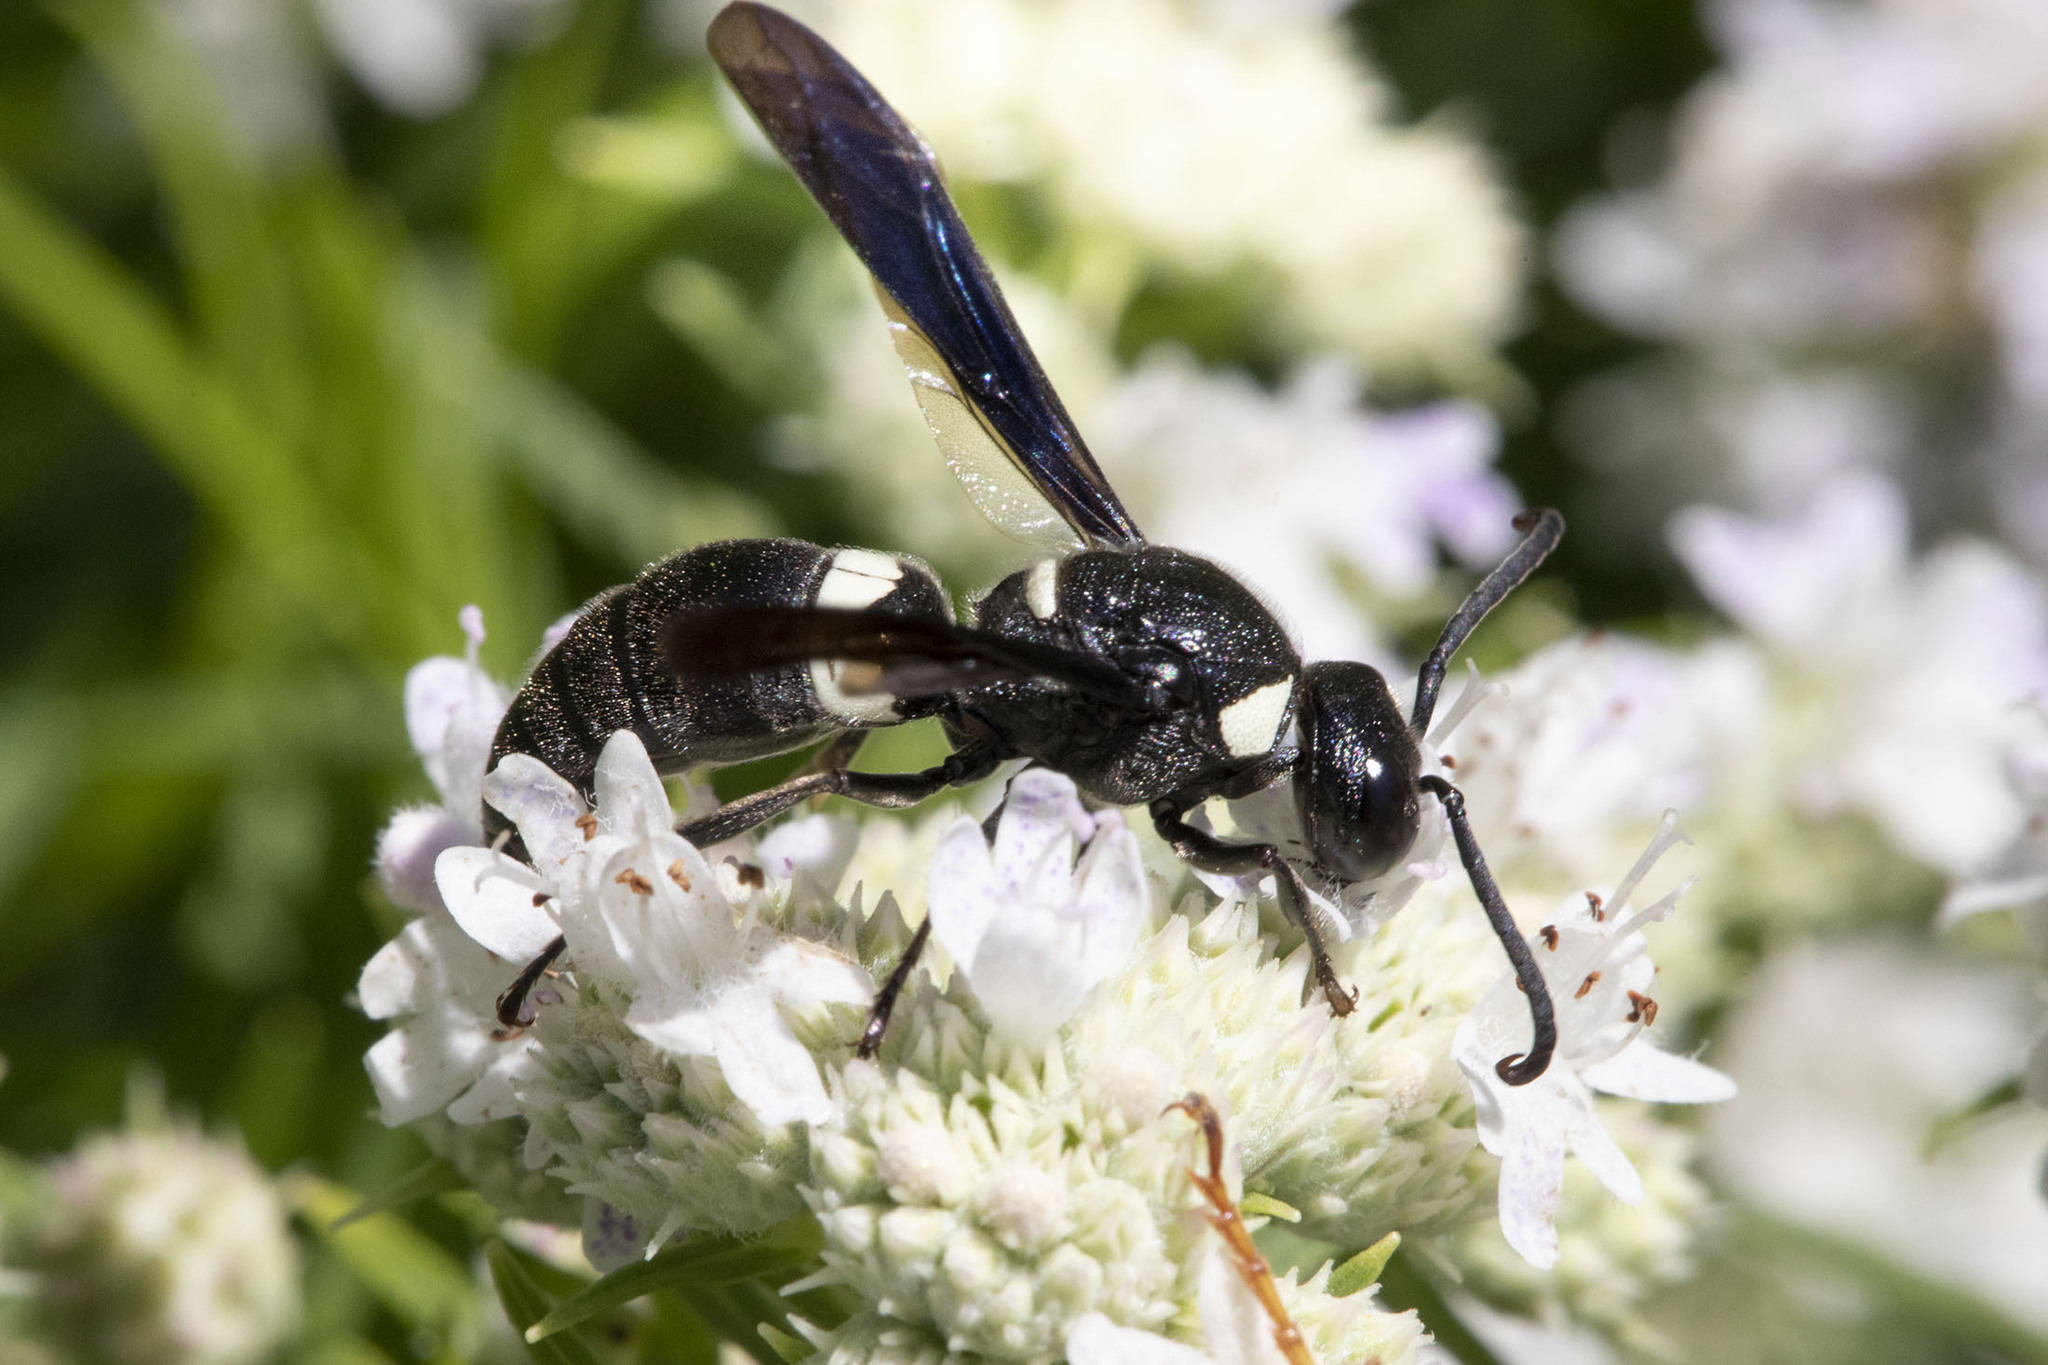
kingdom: Animalia
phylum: Arthropoda
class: Insecta
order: Hymenoptera
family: Eumenidae
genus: Monobia
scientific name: Monobia quadridens
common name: Four-toothed mason wasp
